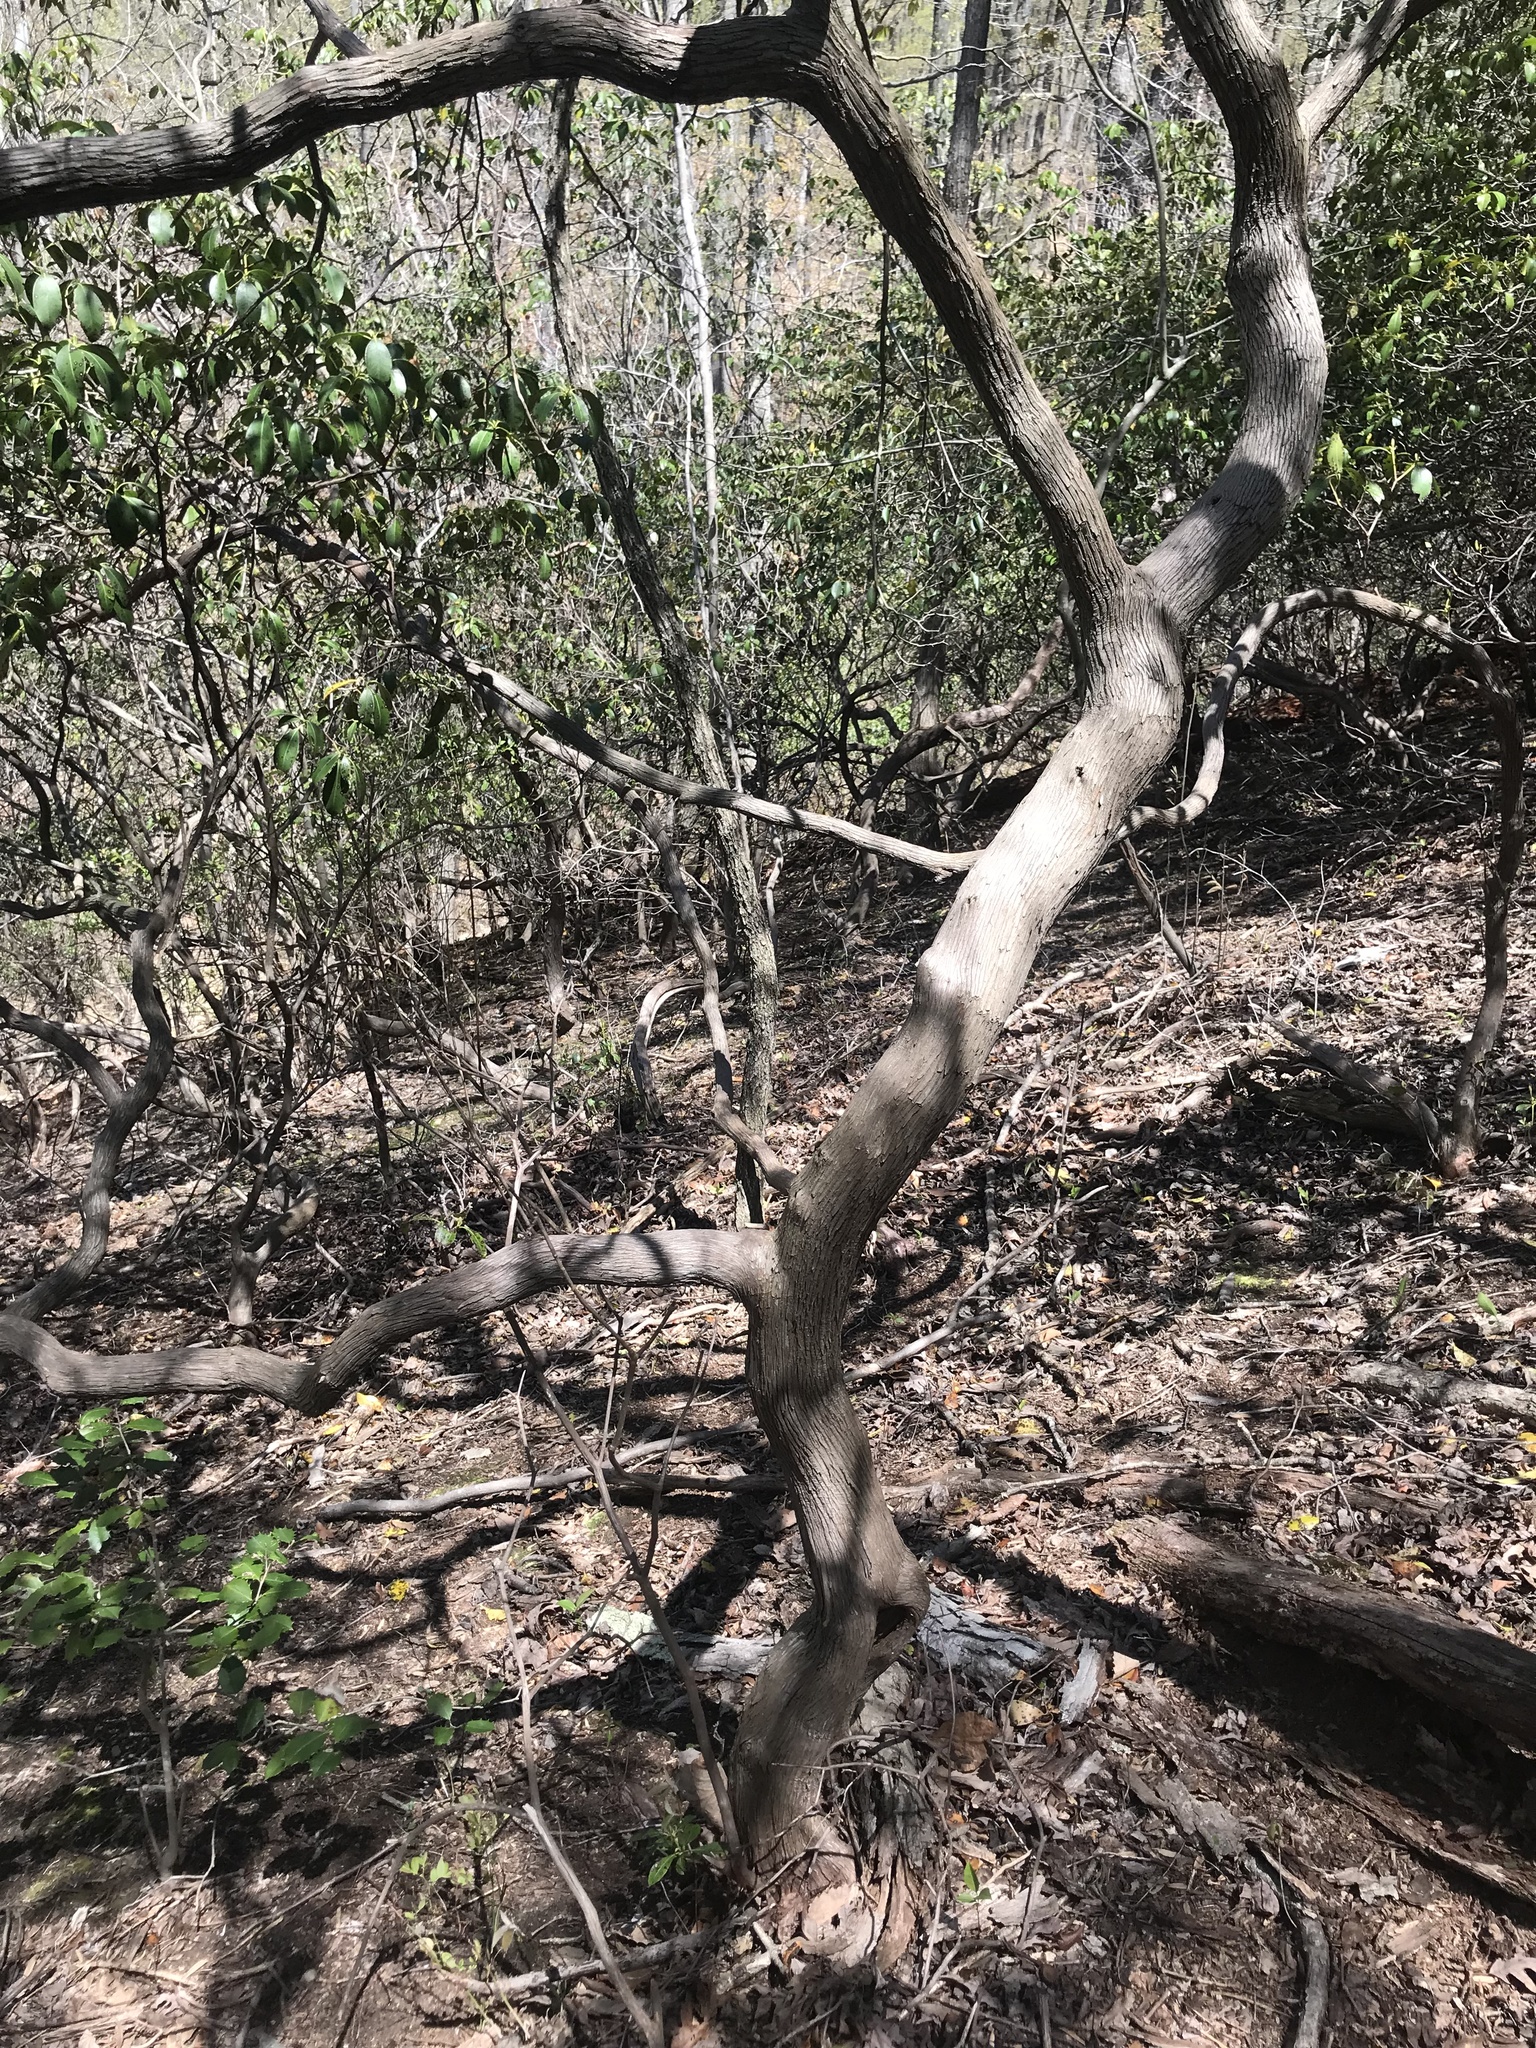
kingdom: Plantae
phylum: Tracheophyta
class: Magnoliopsida
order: Ericales
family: Ericaceae
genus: Kalmia
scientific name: Kalmia latifolia
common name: Mountain-laurel
